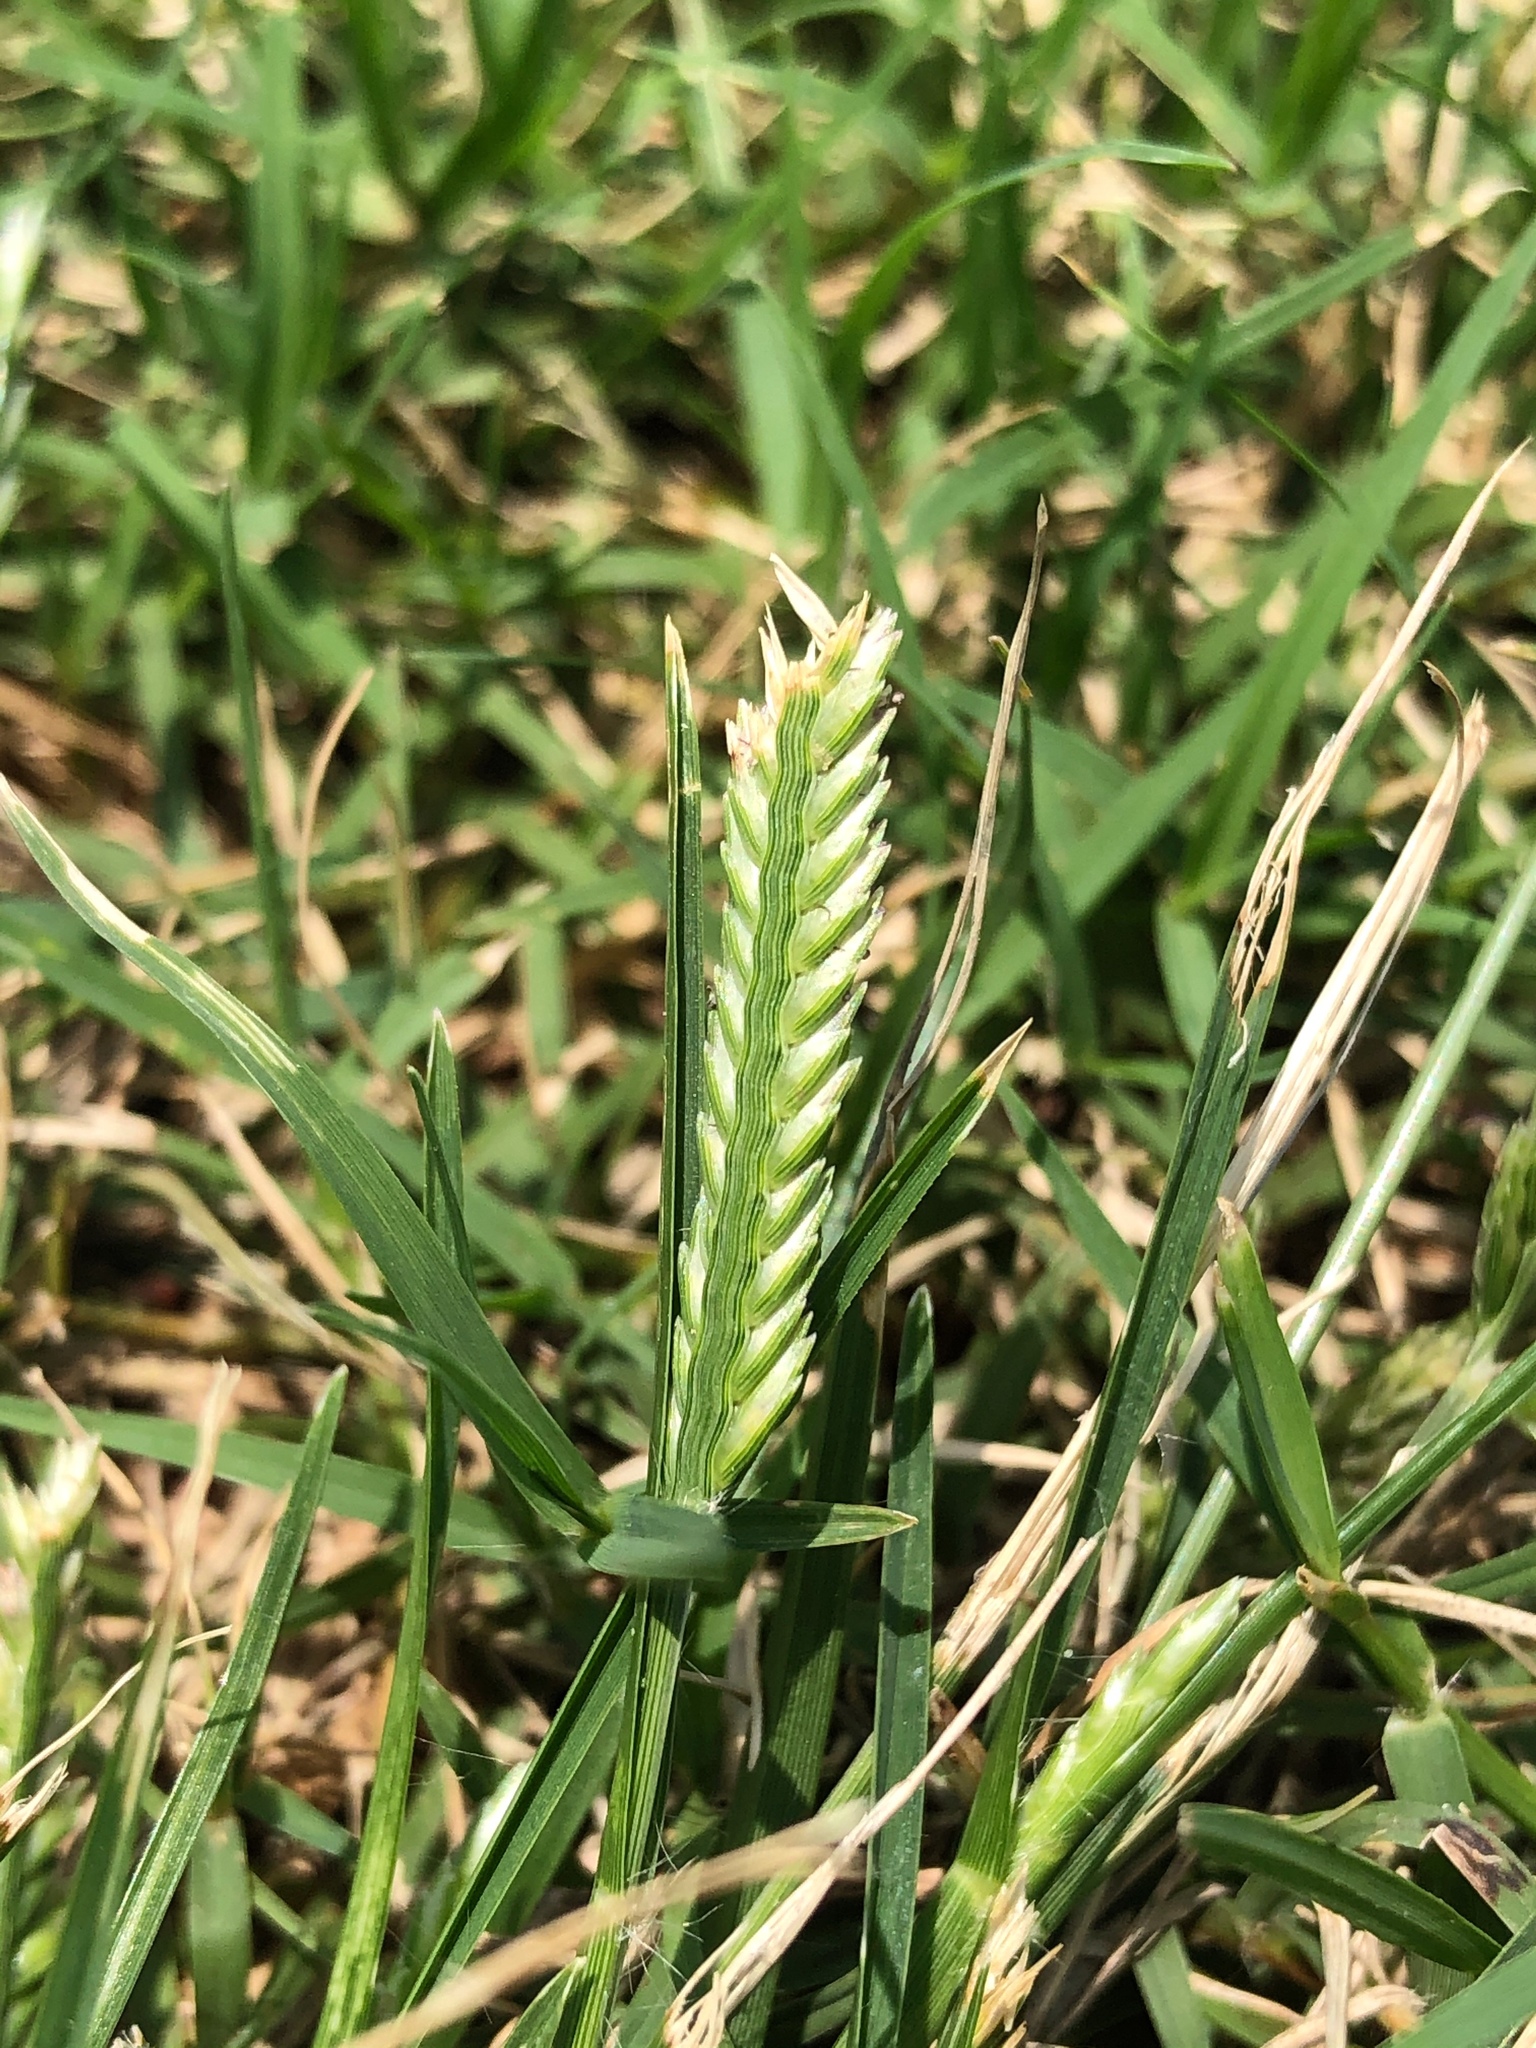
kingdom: Plantae
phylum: Tracheophyta
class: Liliopsida
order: Poales
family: Poaceae
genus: Eleusine
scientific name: Eleusine indica
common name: Yard-grass
